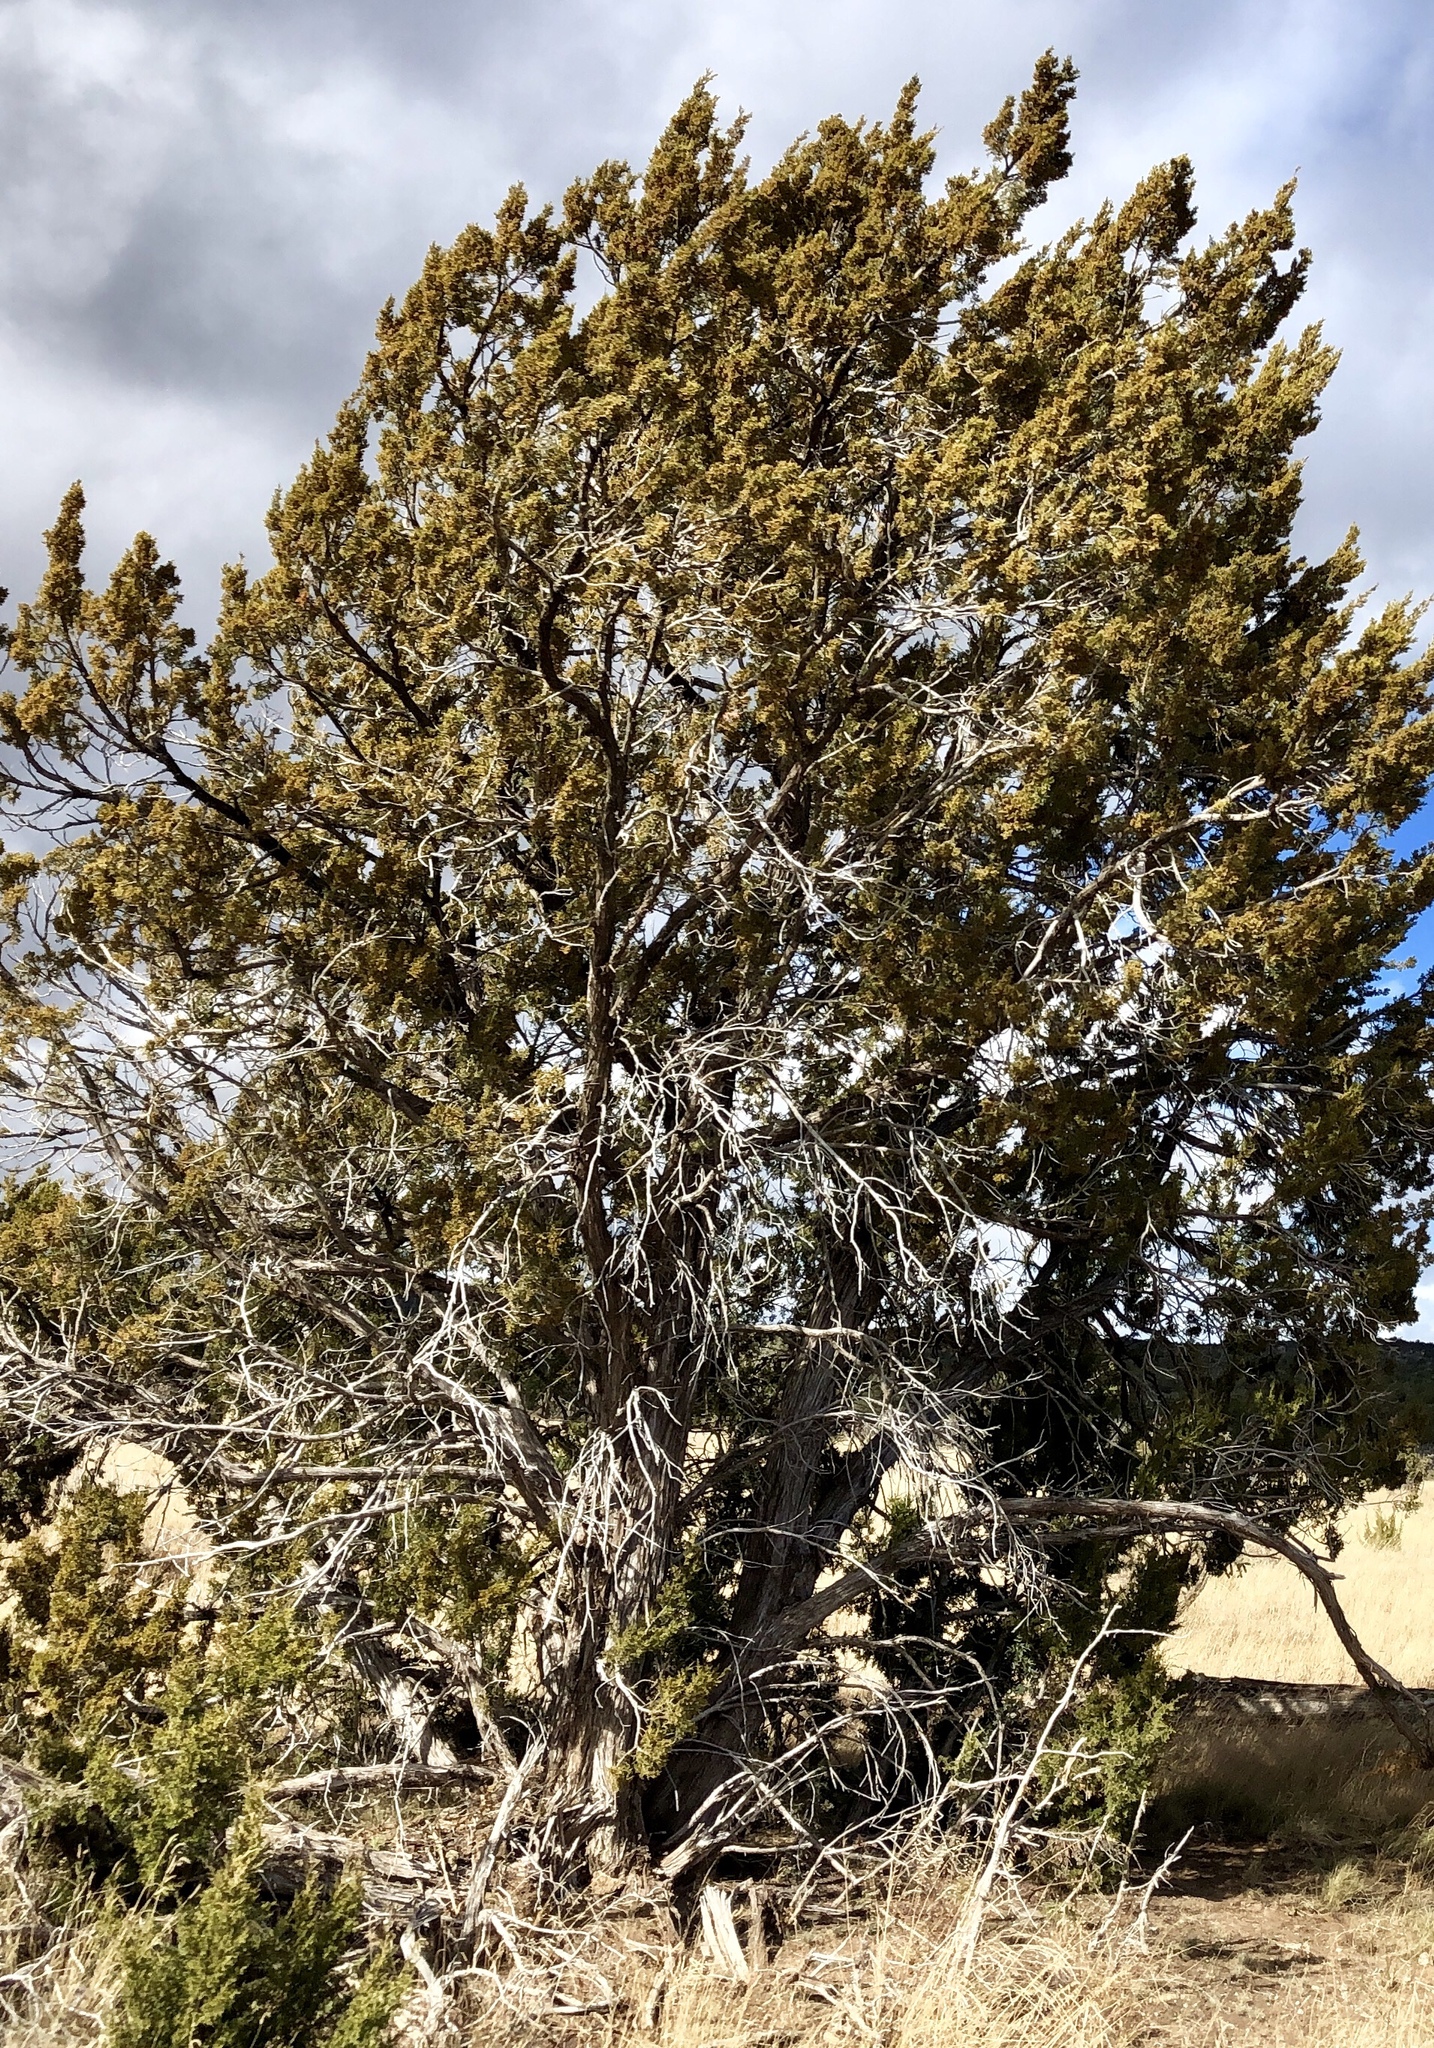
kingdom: Plantae
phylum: Tracheophyta
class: Pinopsida
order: Pinales
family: Cupressaceae
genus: Juniperus
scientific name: Juniperus monosperma
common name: One-seed juniper
